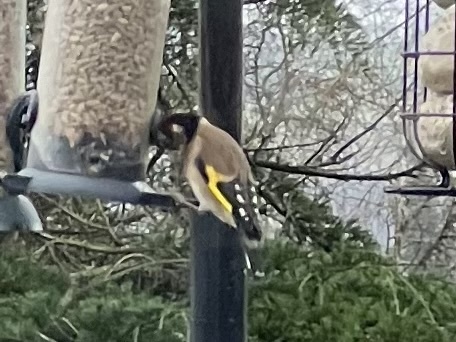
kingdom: Animalia
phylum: Chordata
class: Aves
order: Passeriformes
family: Fringillidae
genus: Carduelis
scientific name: Carduelis carduelis
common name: European goldfinch
